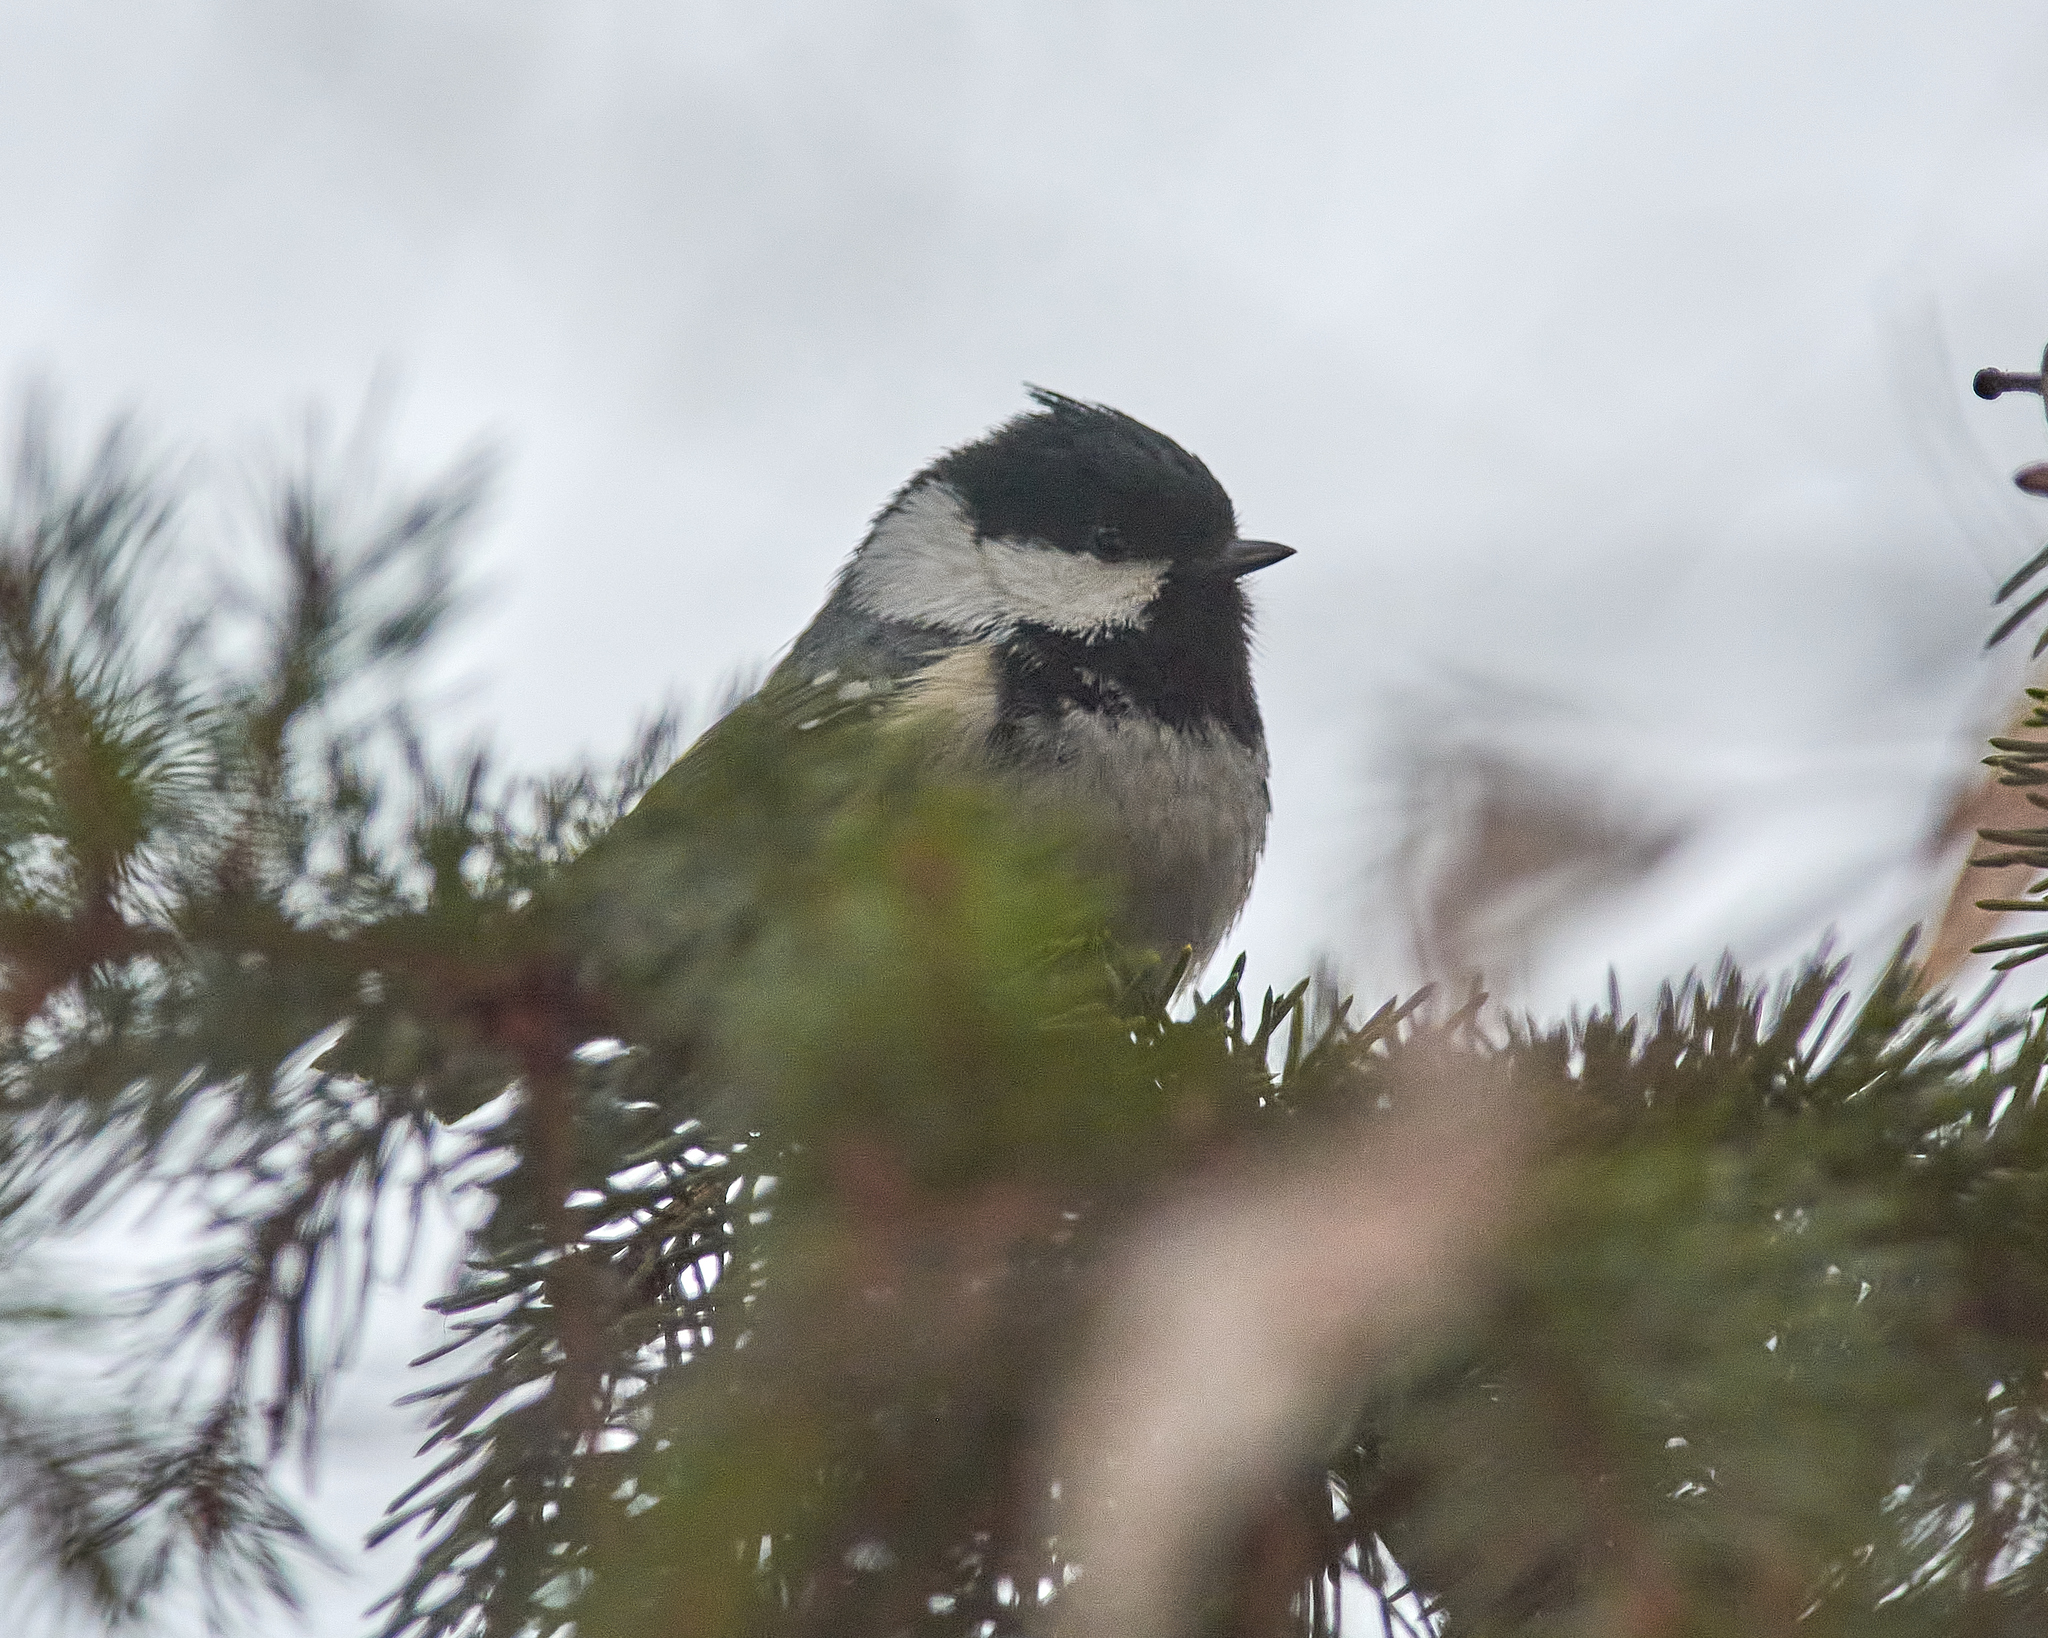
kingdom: Animalia
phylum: Chordata
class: Aves
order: Passeriformes
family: Paridae
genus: Periparus
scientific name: Periparus ater
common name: Coal tit
